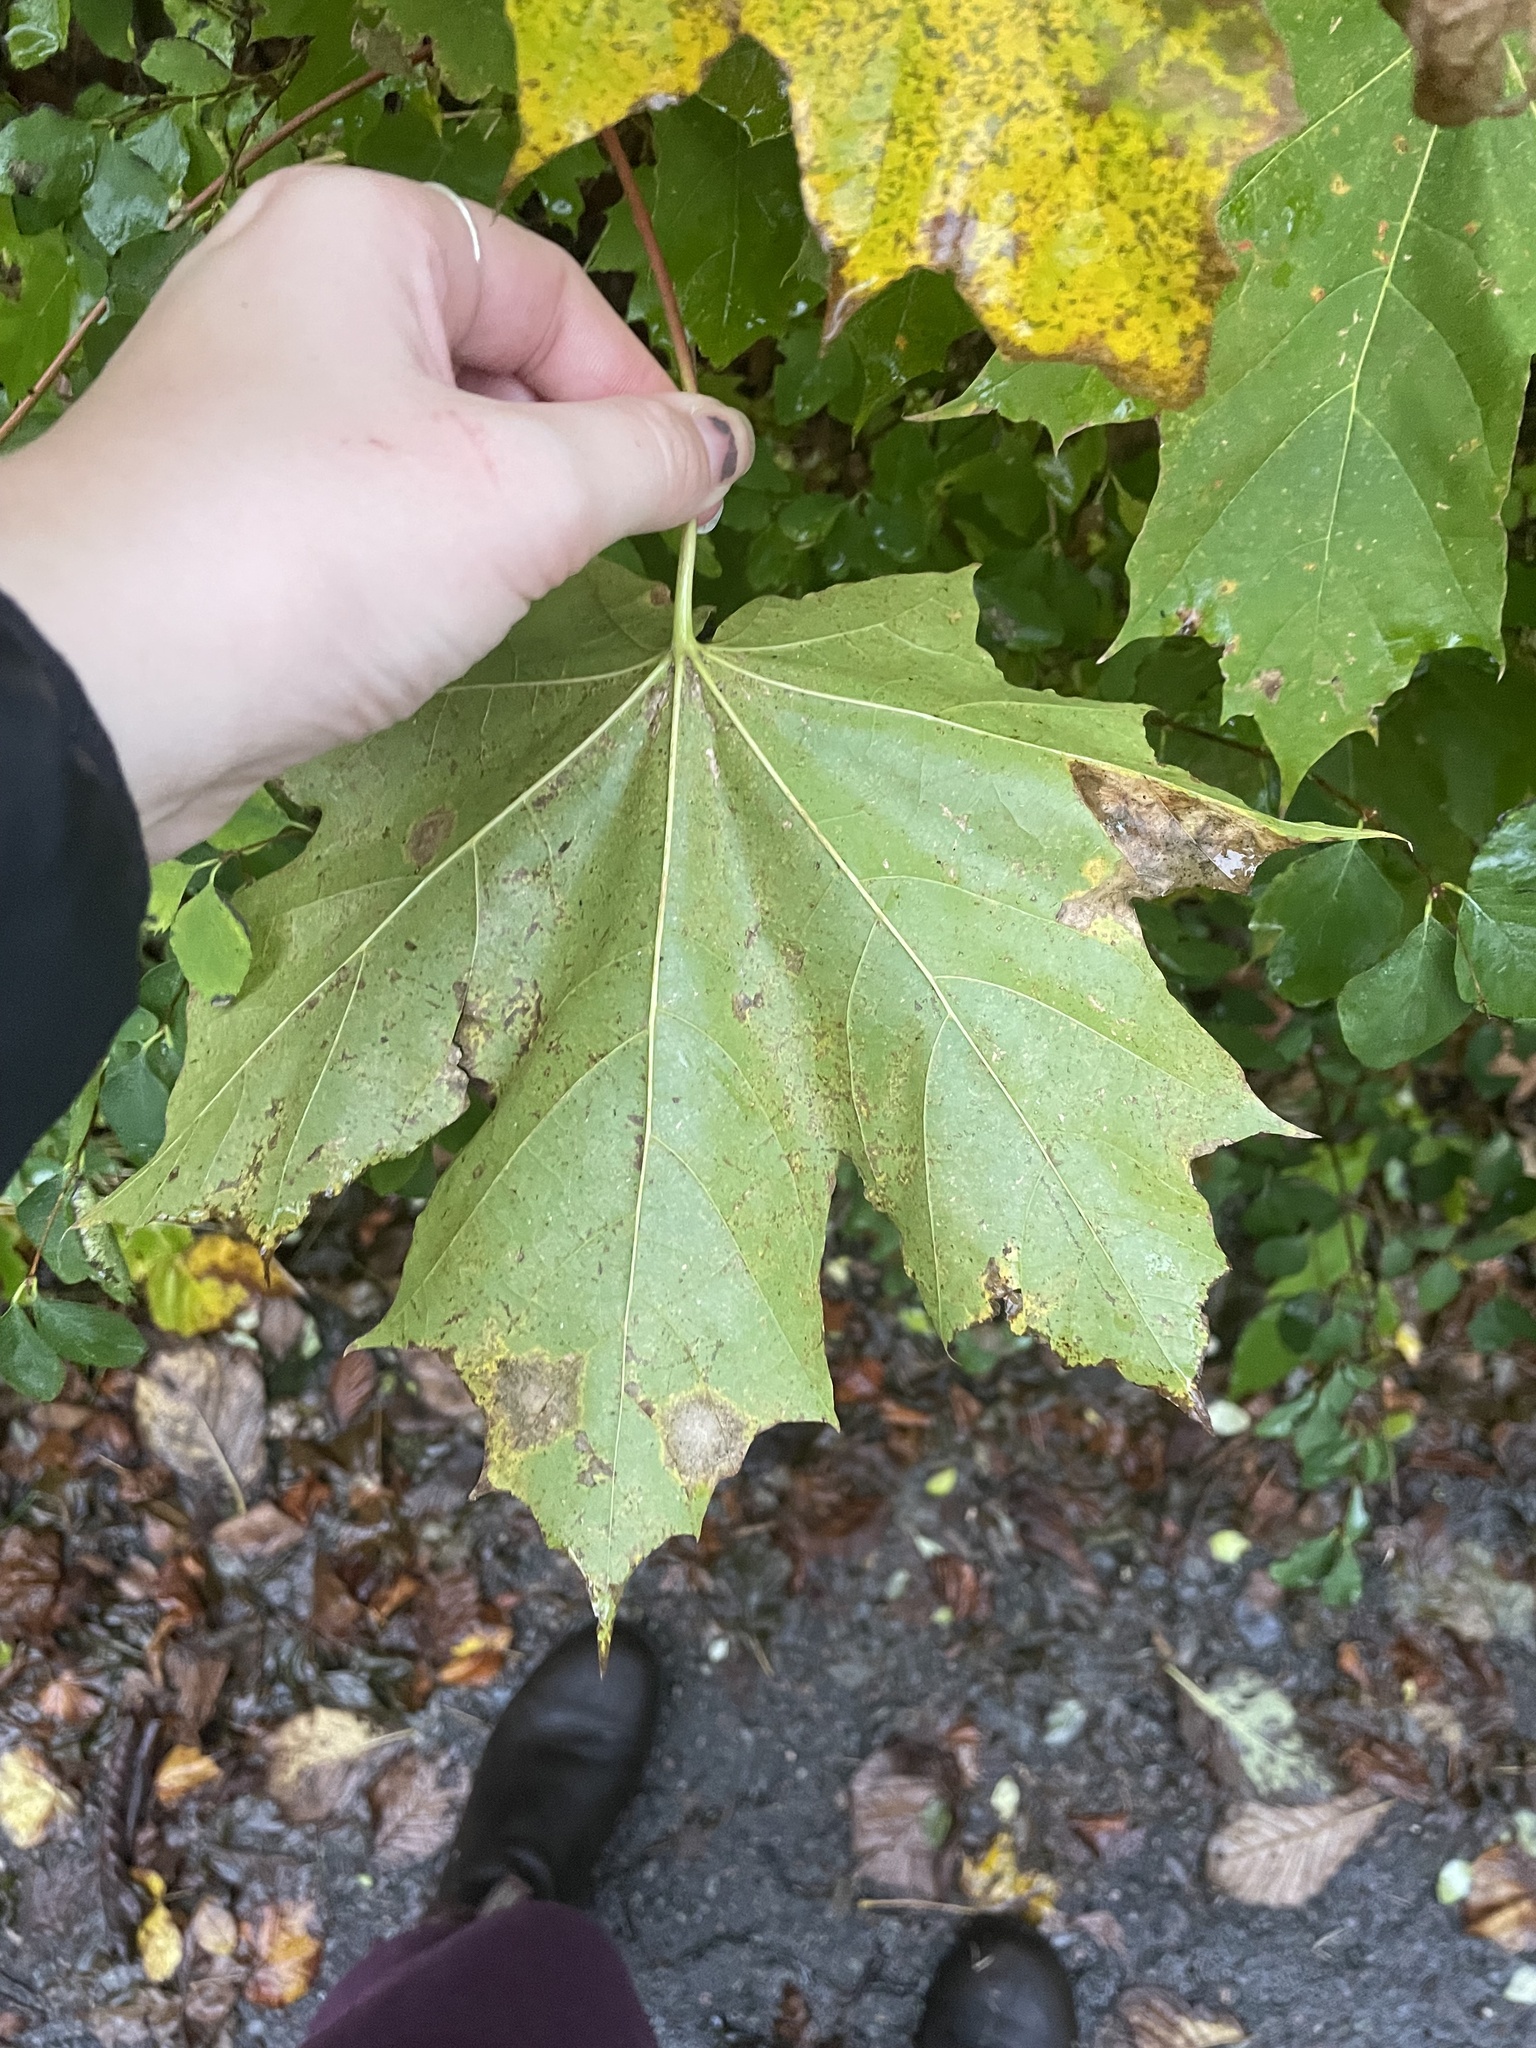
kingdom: Plantae
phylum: Tracheophyta
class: Magnoliopsida
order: Sapindales
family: Sapindaceae
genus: Acer
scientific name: Acer platanoides
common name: Norway maple
